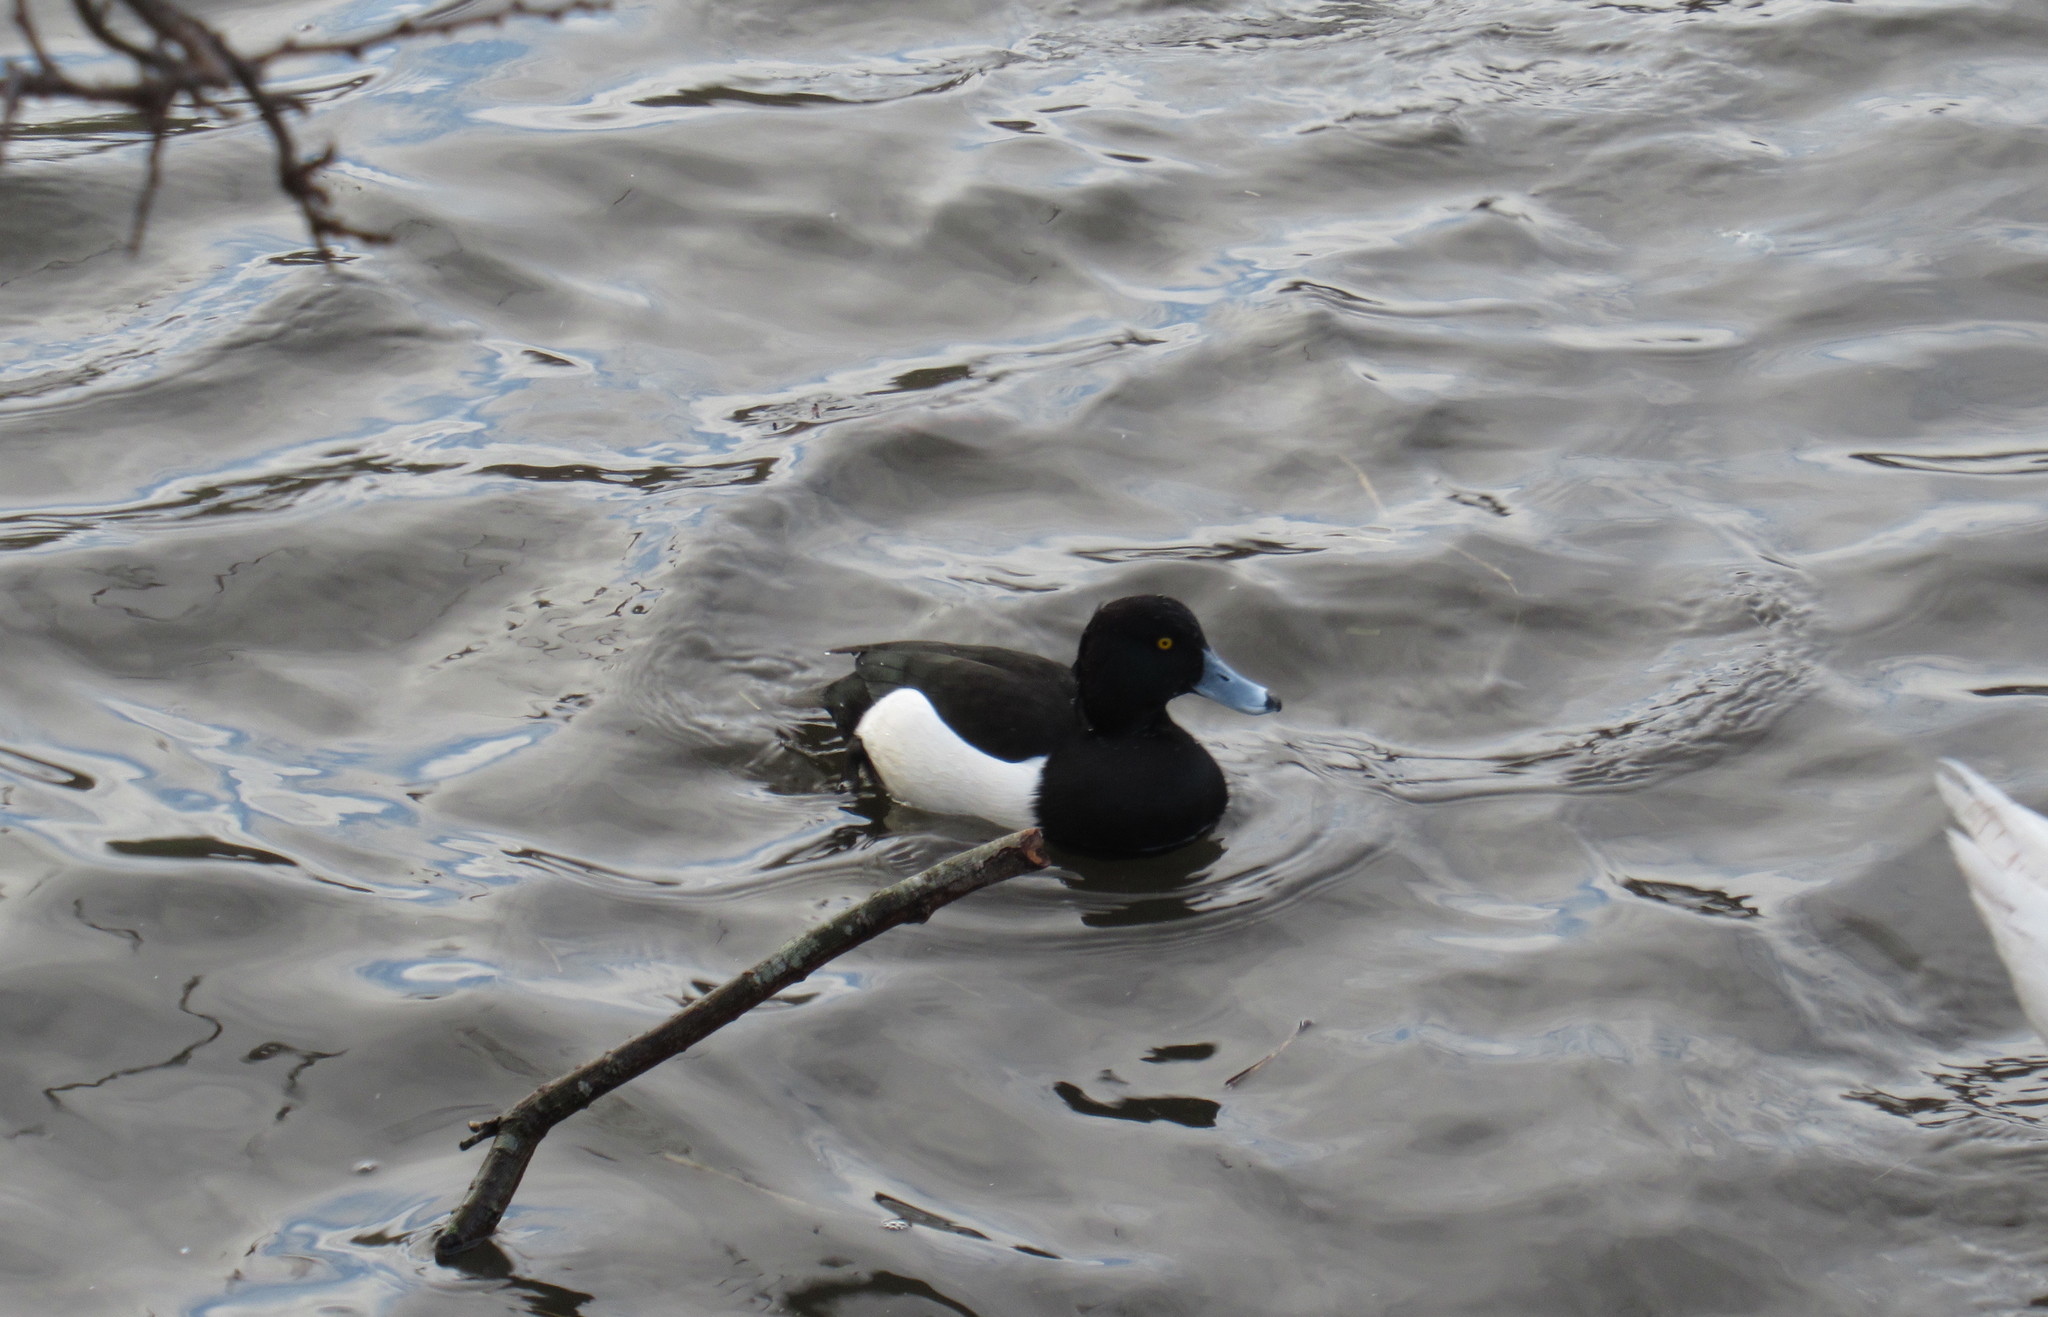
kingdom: Animalia
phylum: Chordata
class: Aves
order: Anseriformes
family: Anatidae
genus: Aythya
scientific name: Aythya fuligula
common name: Tufted duck
